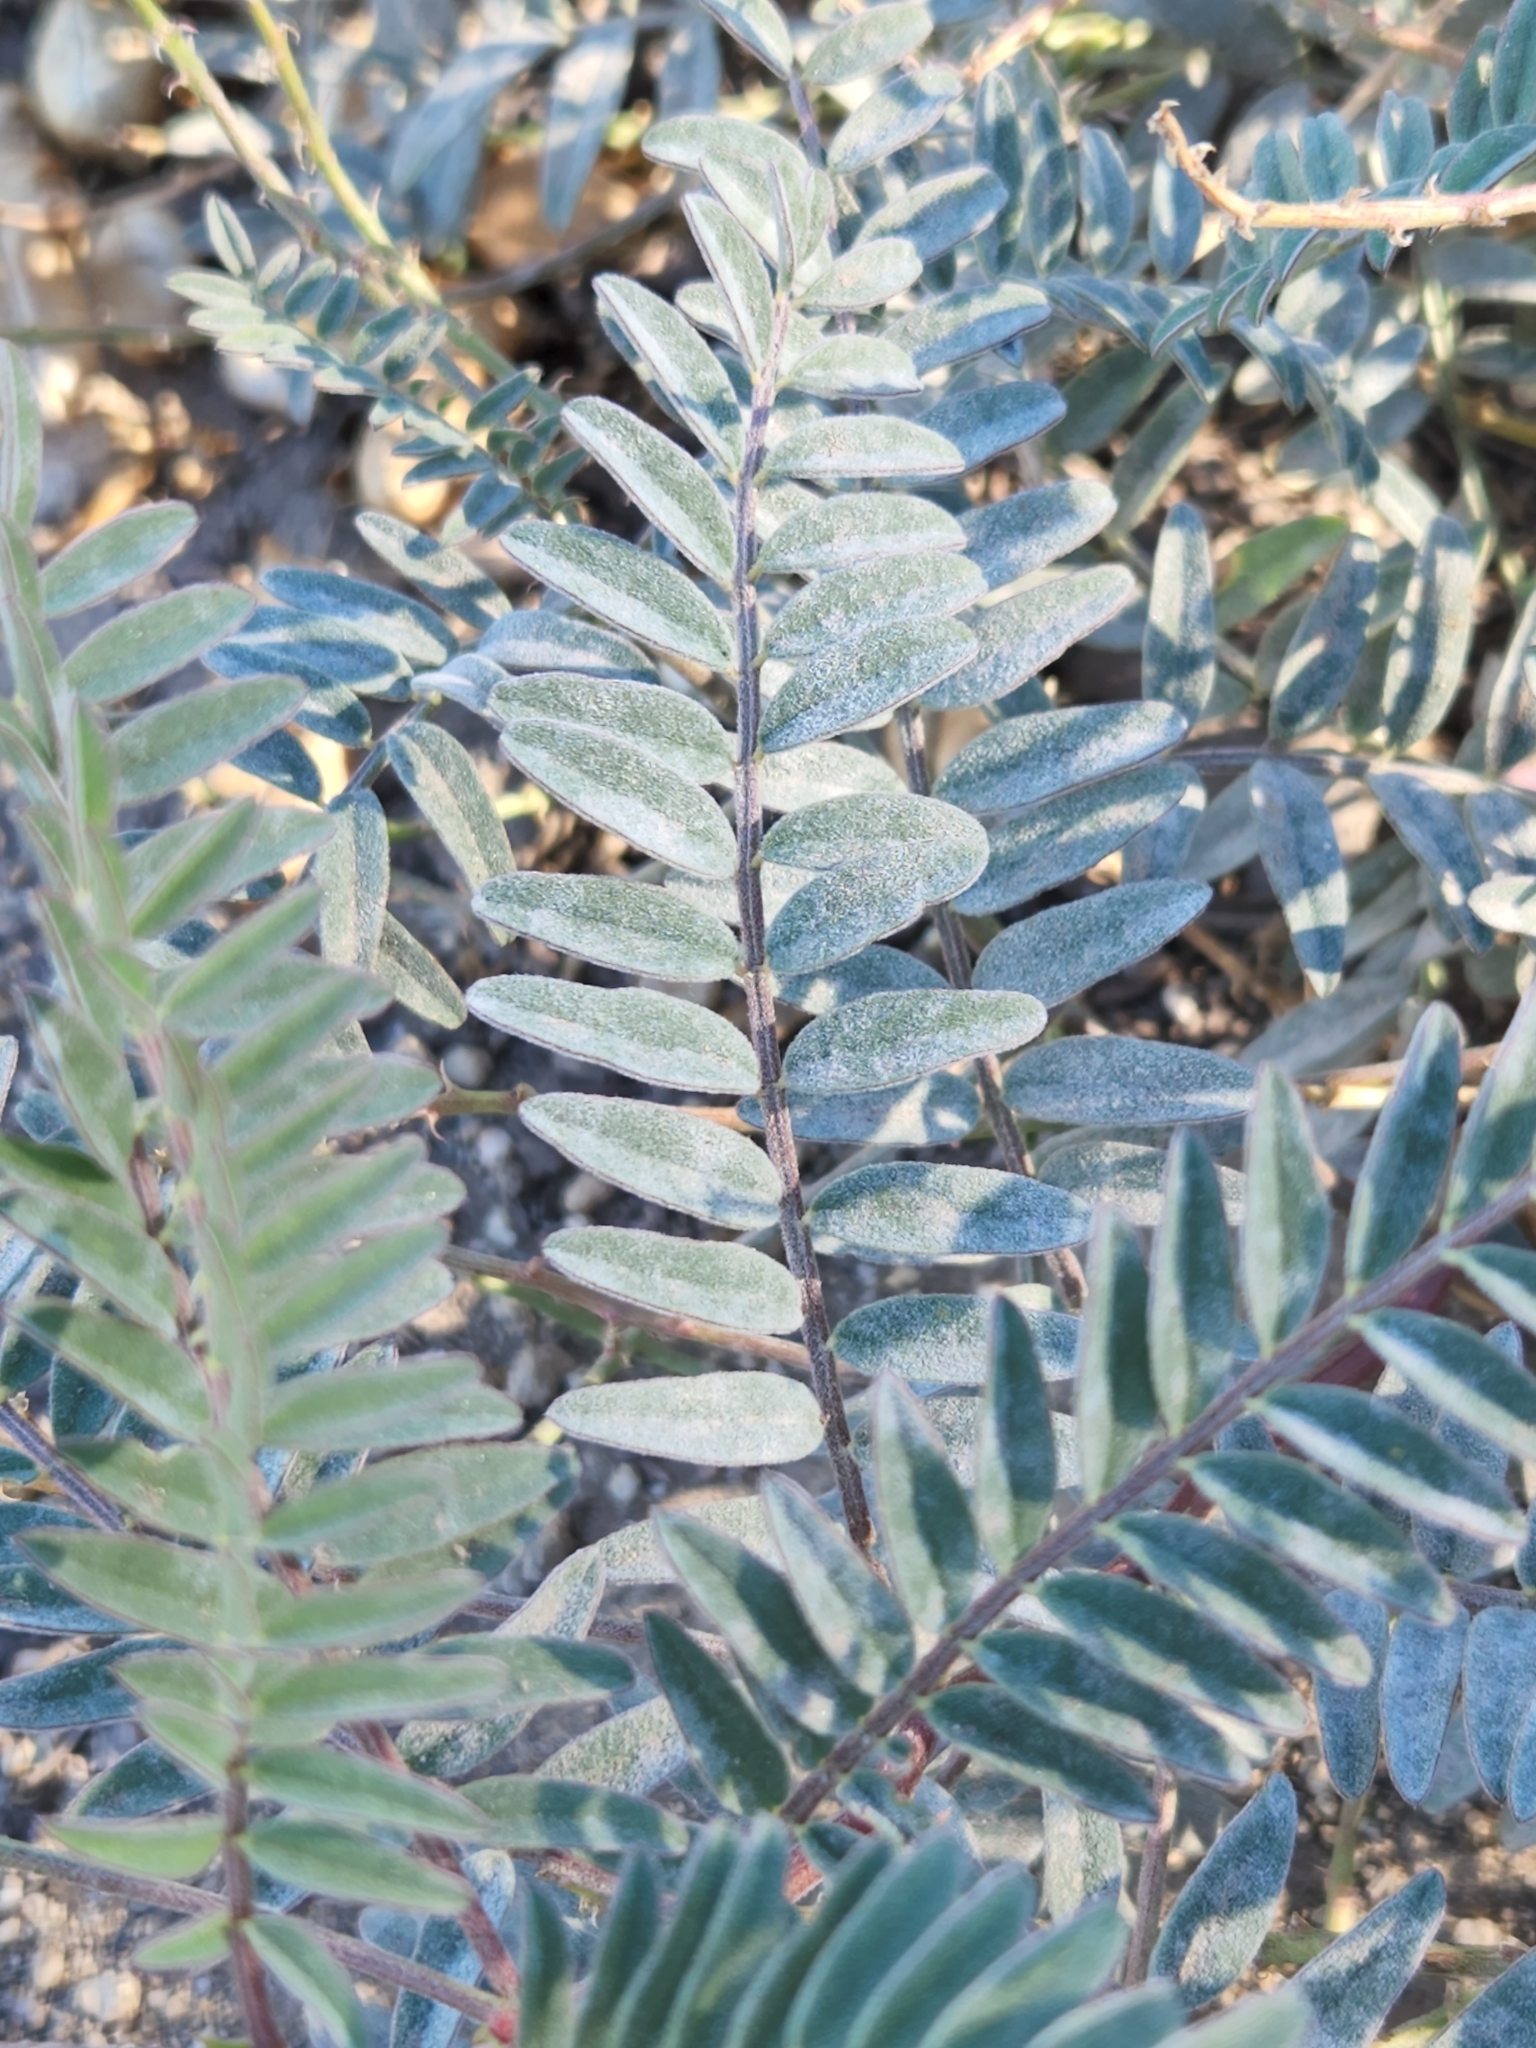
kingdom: Plantae
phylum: Tracheophyta
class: Magnoliopsida
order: Fabales
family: Fabaceae
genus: Astragalus
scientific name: Astragalus douglasii
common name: Jacumba milkvetch
